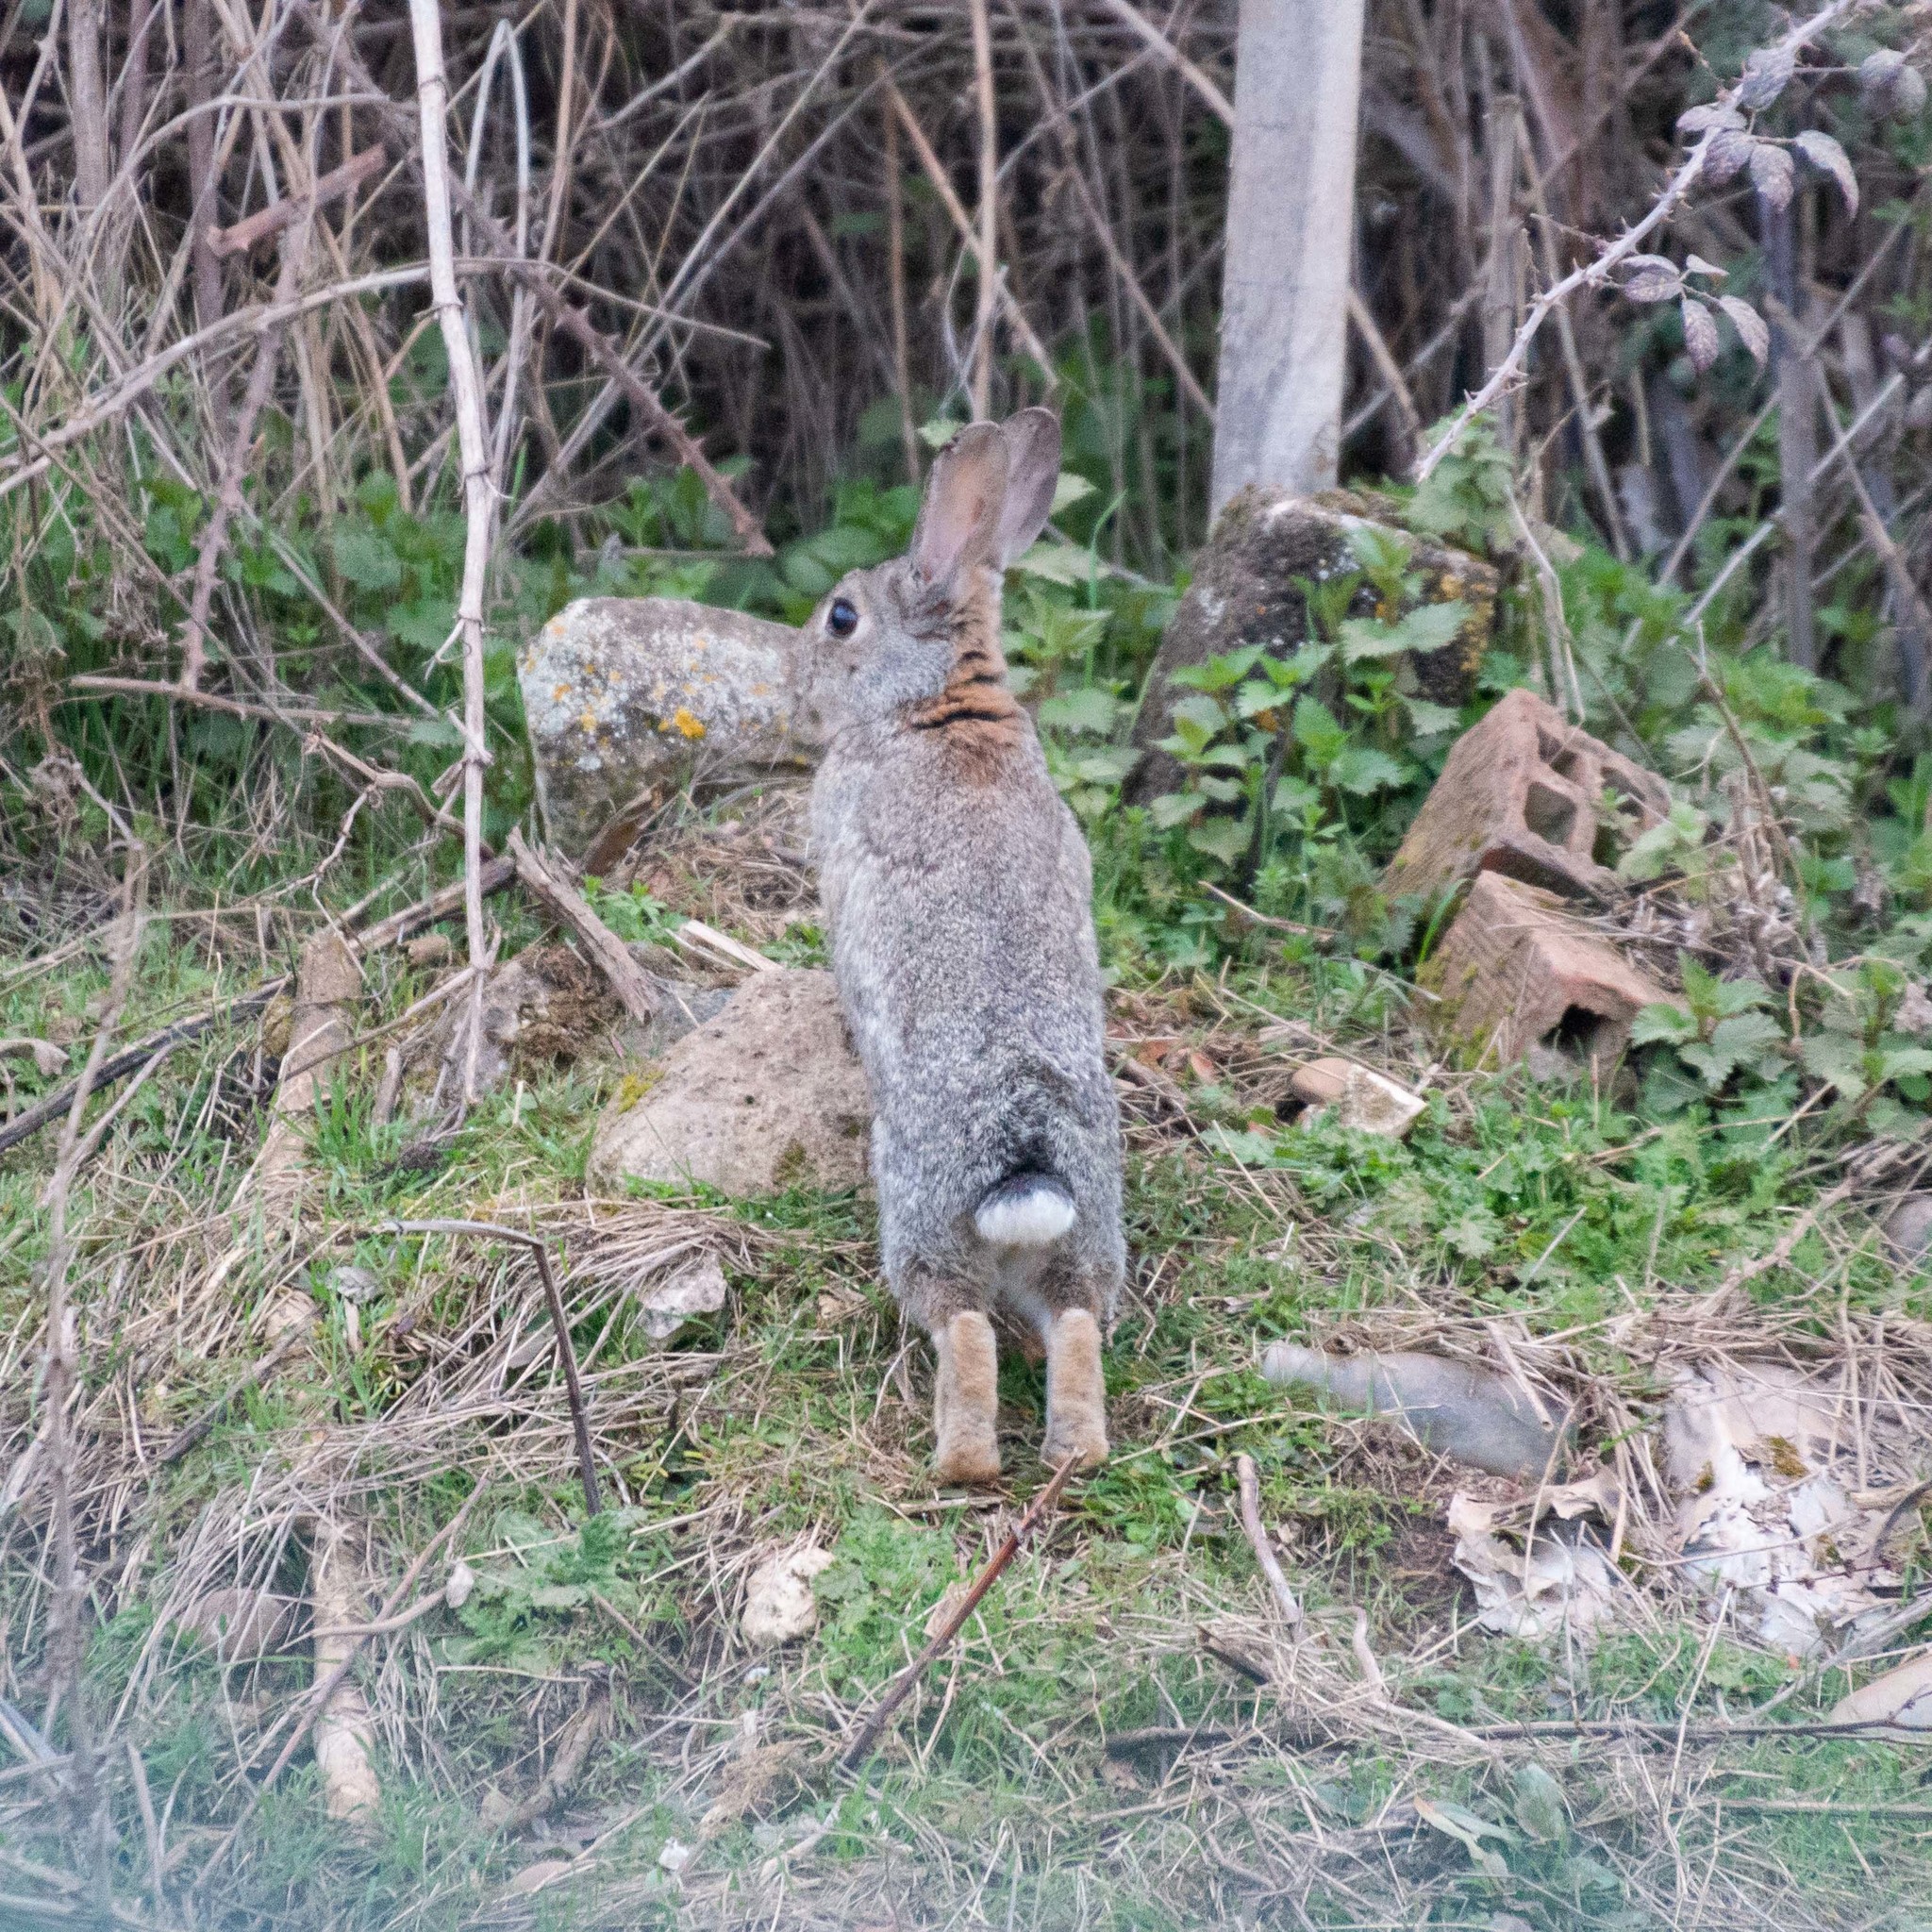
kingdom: Animalia
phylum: Chordata
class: Mammalia
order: Lagomorpha
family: Leporidae
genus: Oryctolagus
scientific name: Oryctolagus cuniculus
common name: European rabbit
